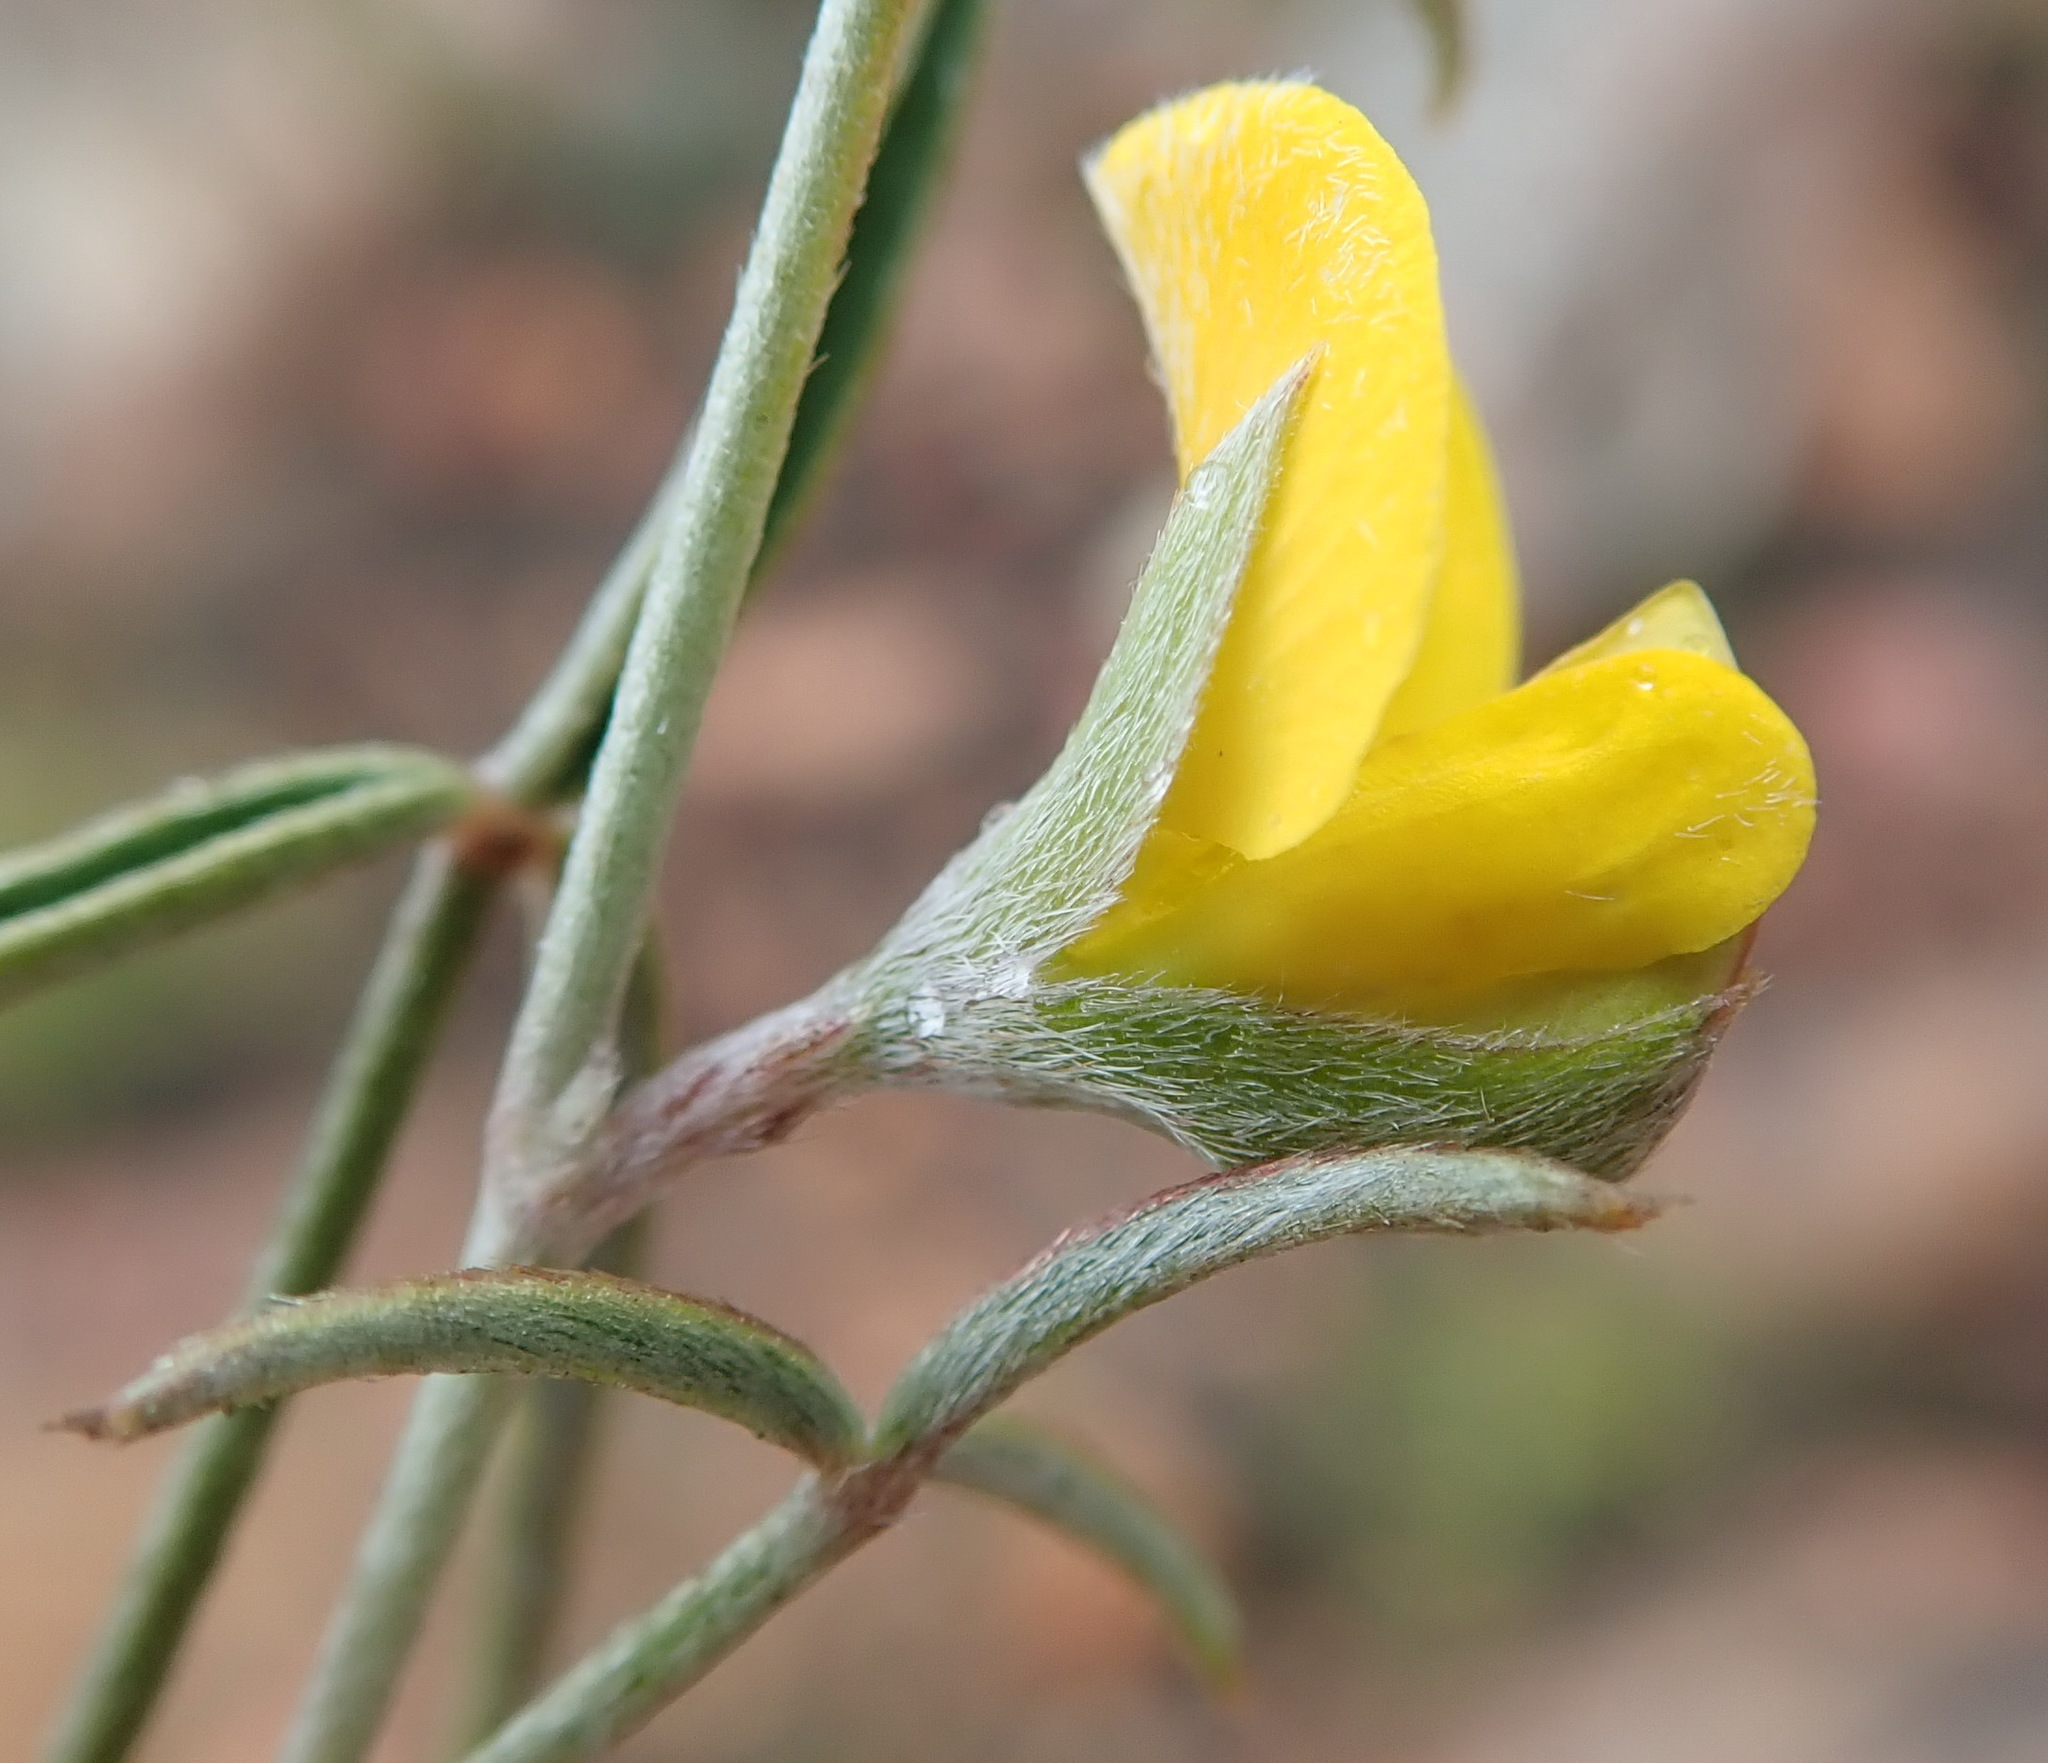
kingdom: Plantae
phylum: Tracheophyta
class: Magnoliopsida
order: Fabales
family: Fabaceae
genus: Argyrolobium
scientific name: Argyrolobium rarum
